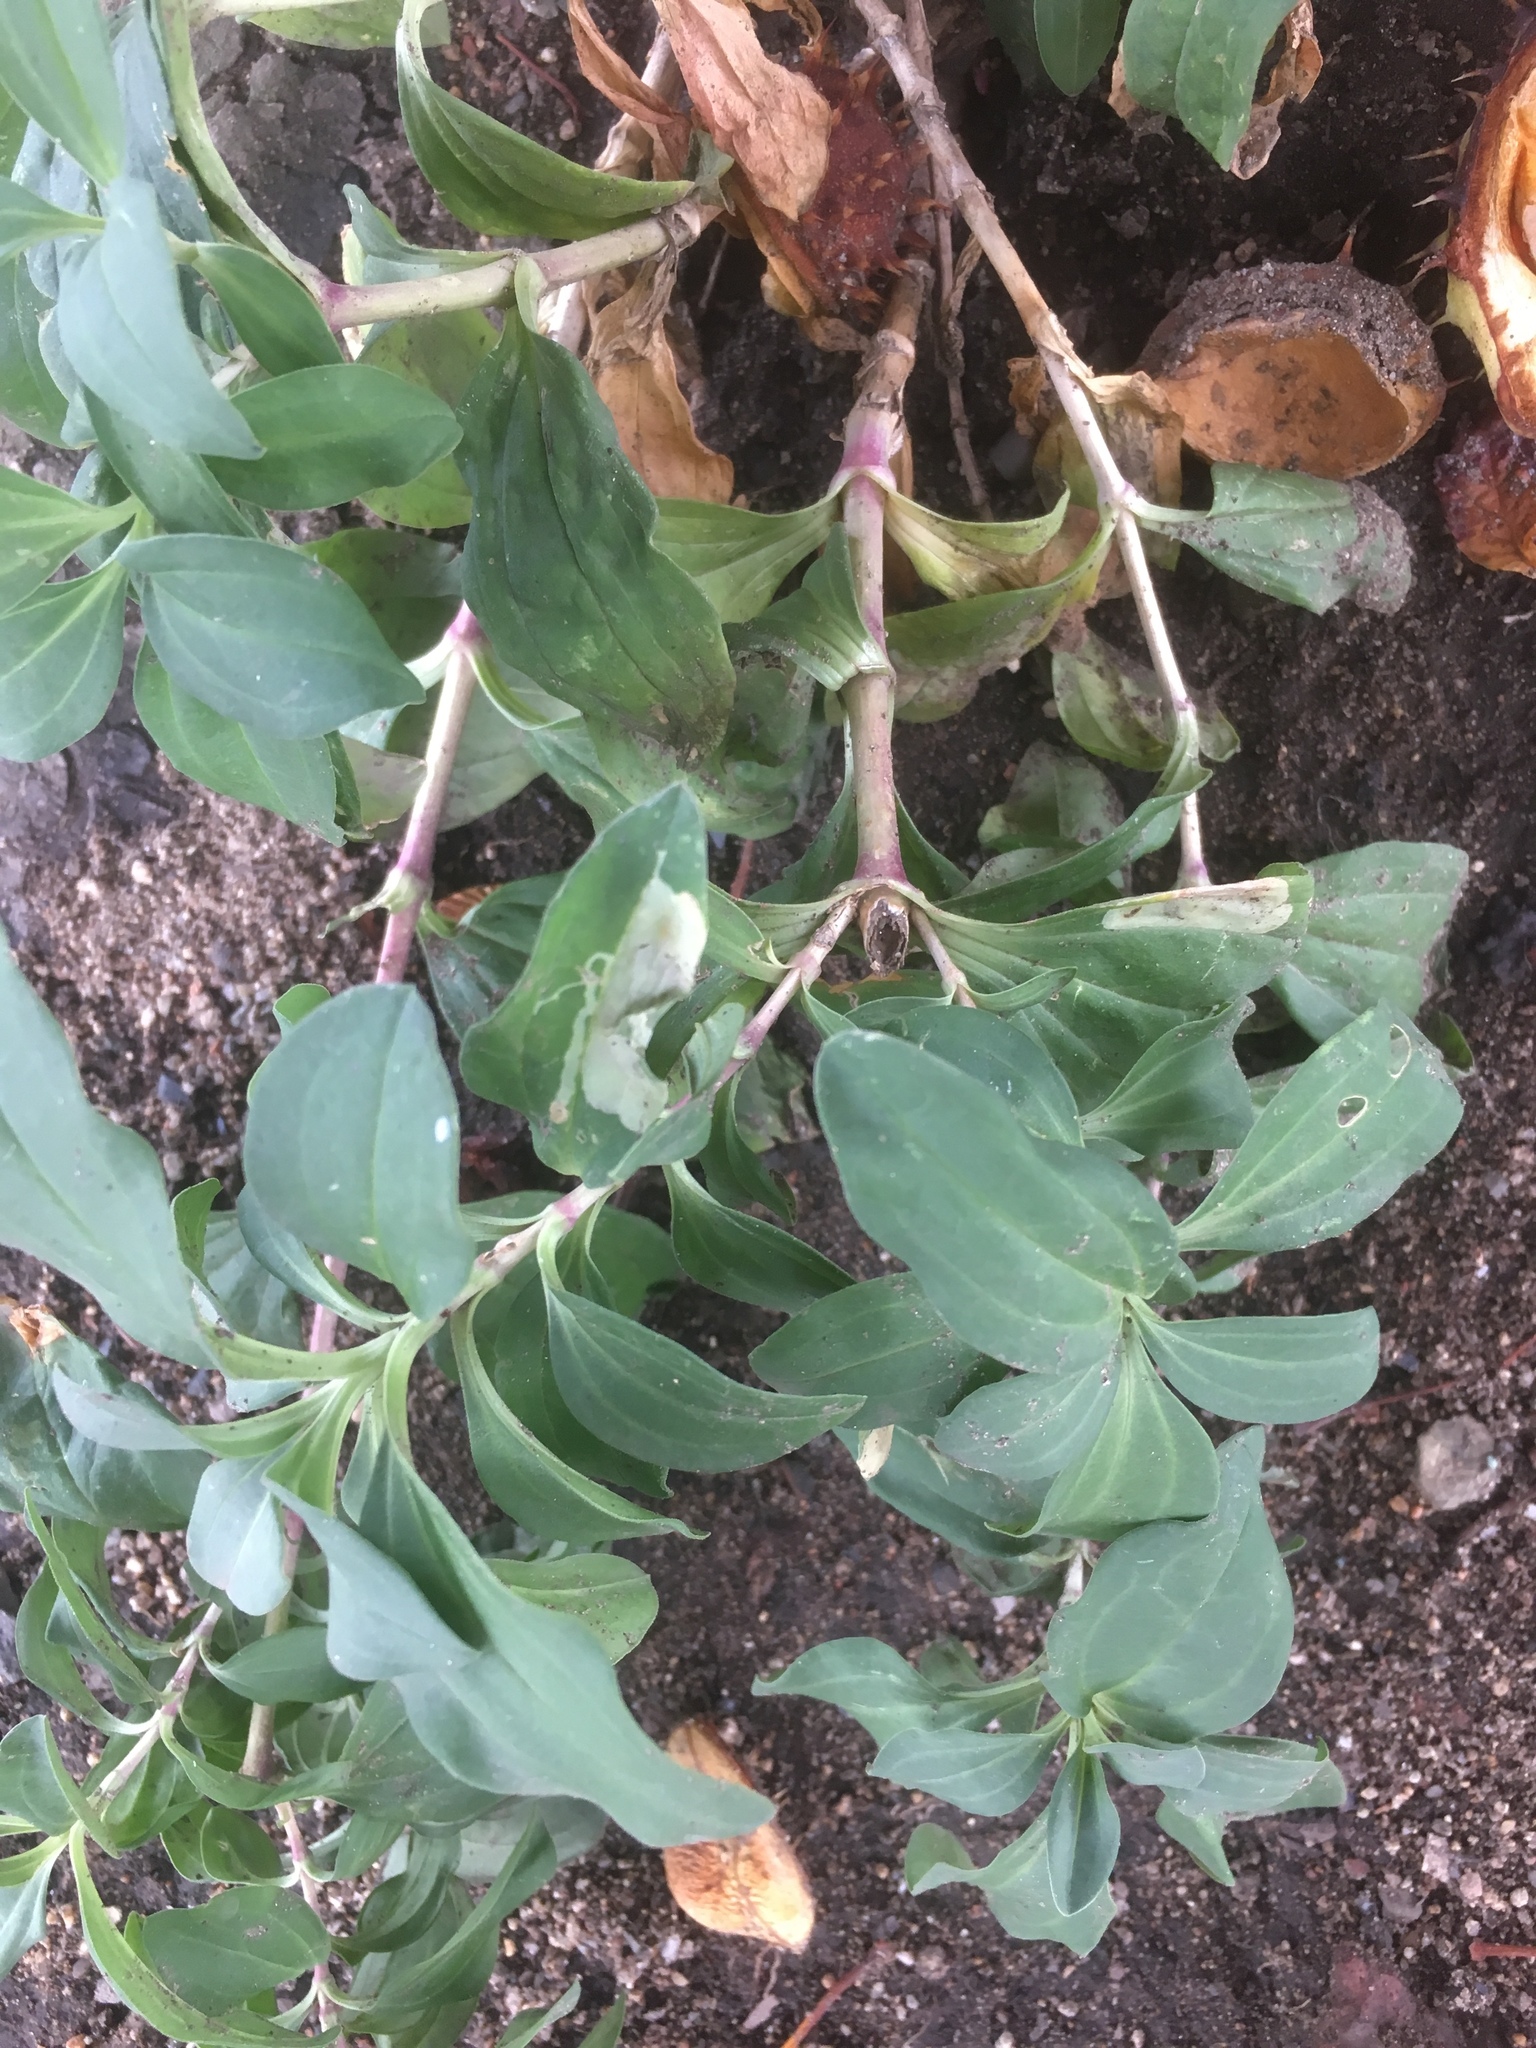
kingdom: Plantae
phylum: Tracheophyta
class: Magnoliopsida
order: Caryophyllales
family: Caryophyllaceae
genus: Saponaria
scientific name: Saponaria officinalis
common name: Soapwort
